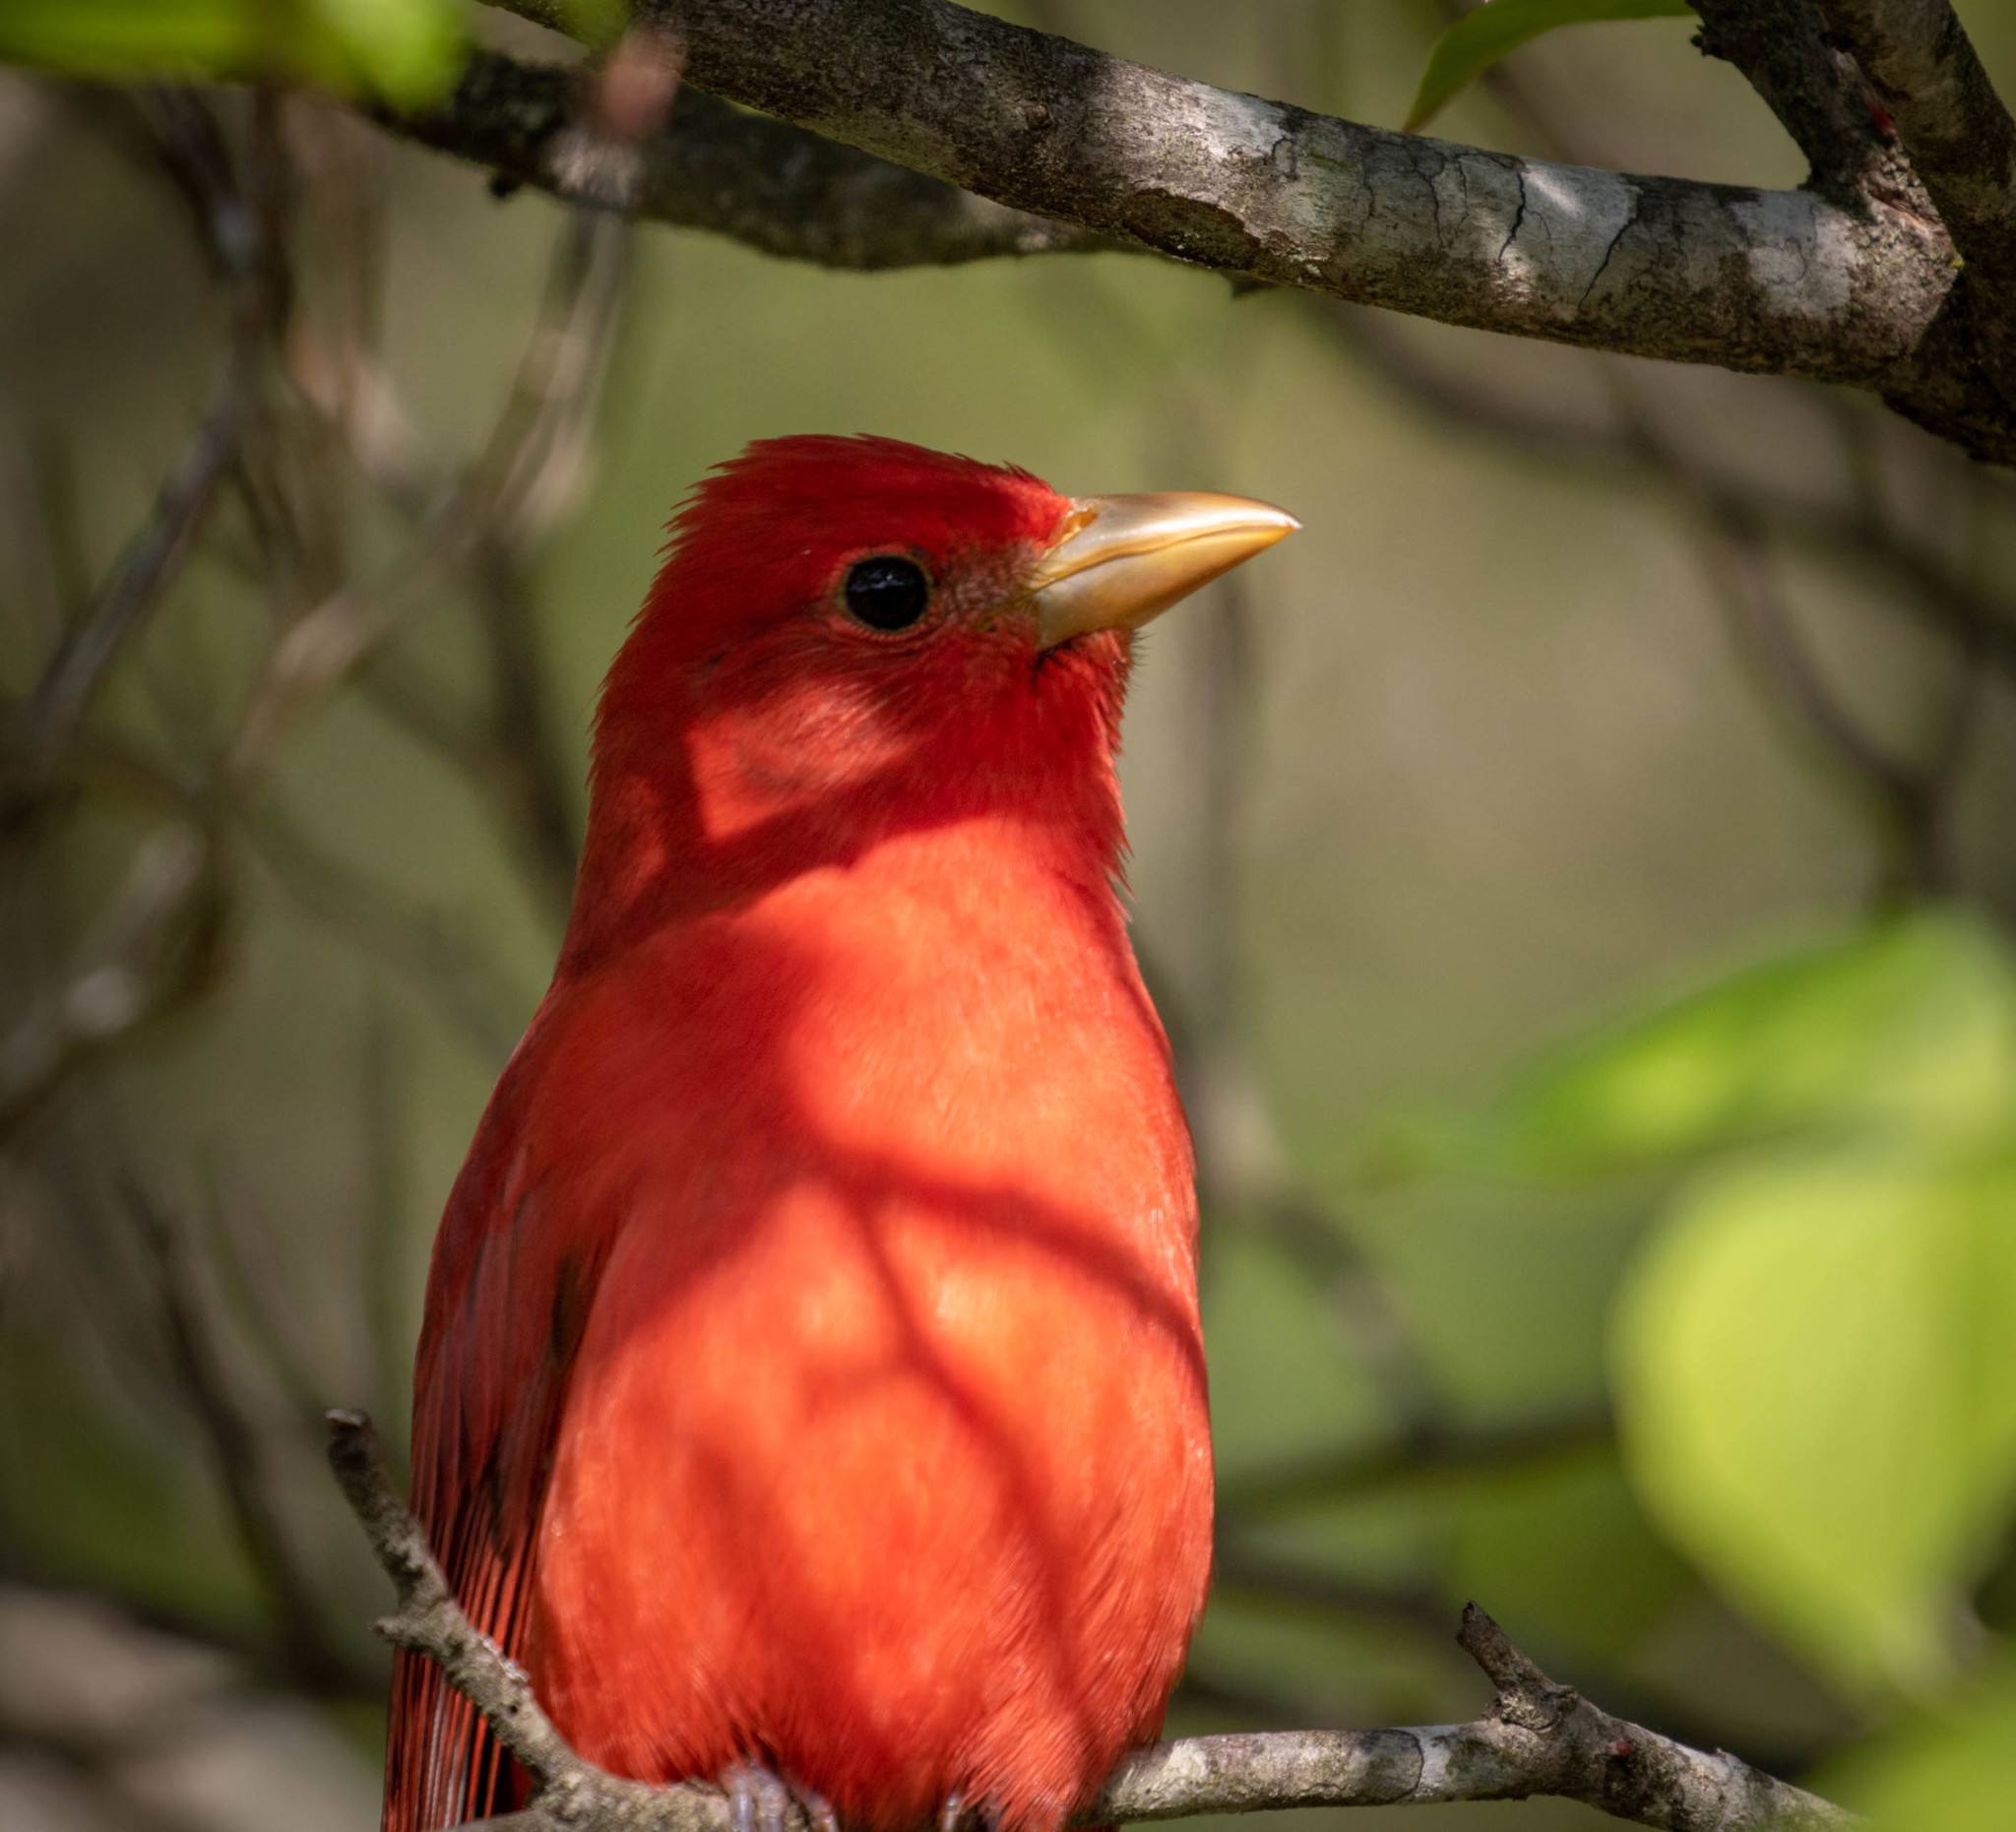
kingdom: Animalia
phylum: Chordata
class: Aves
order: Passeriformes
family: Cardinalidae
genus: Piranga
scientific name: Piranga rubra
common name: Summer tanager
